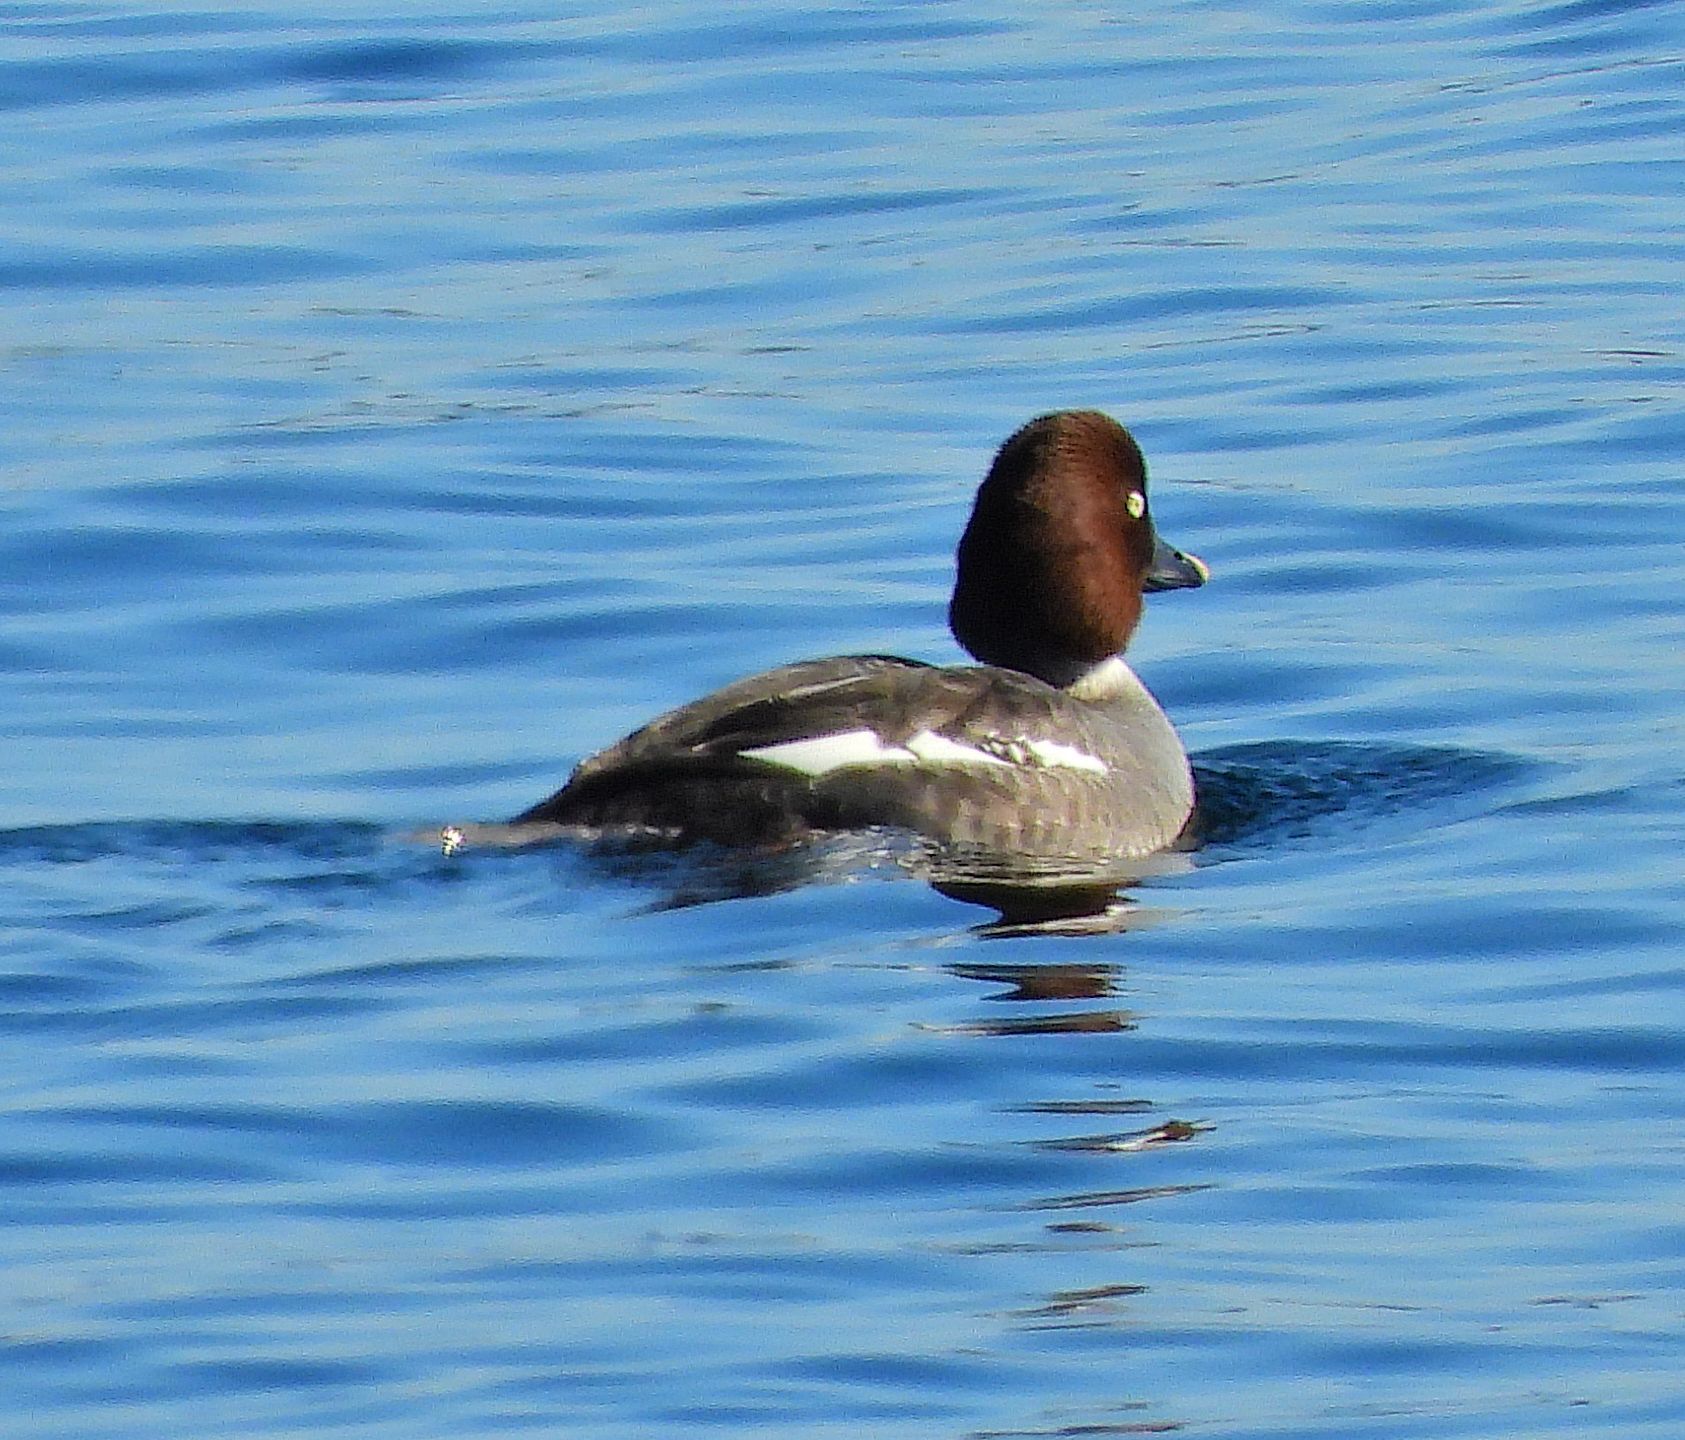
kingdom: Animalia
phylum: Chordata
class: Aves
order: Anseriformes
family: Anatidae
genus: Bucephala
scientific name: Bucephala clangula
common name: Common goldeneye
